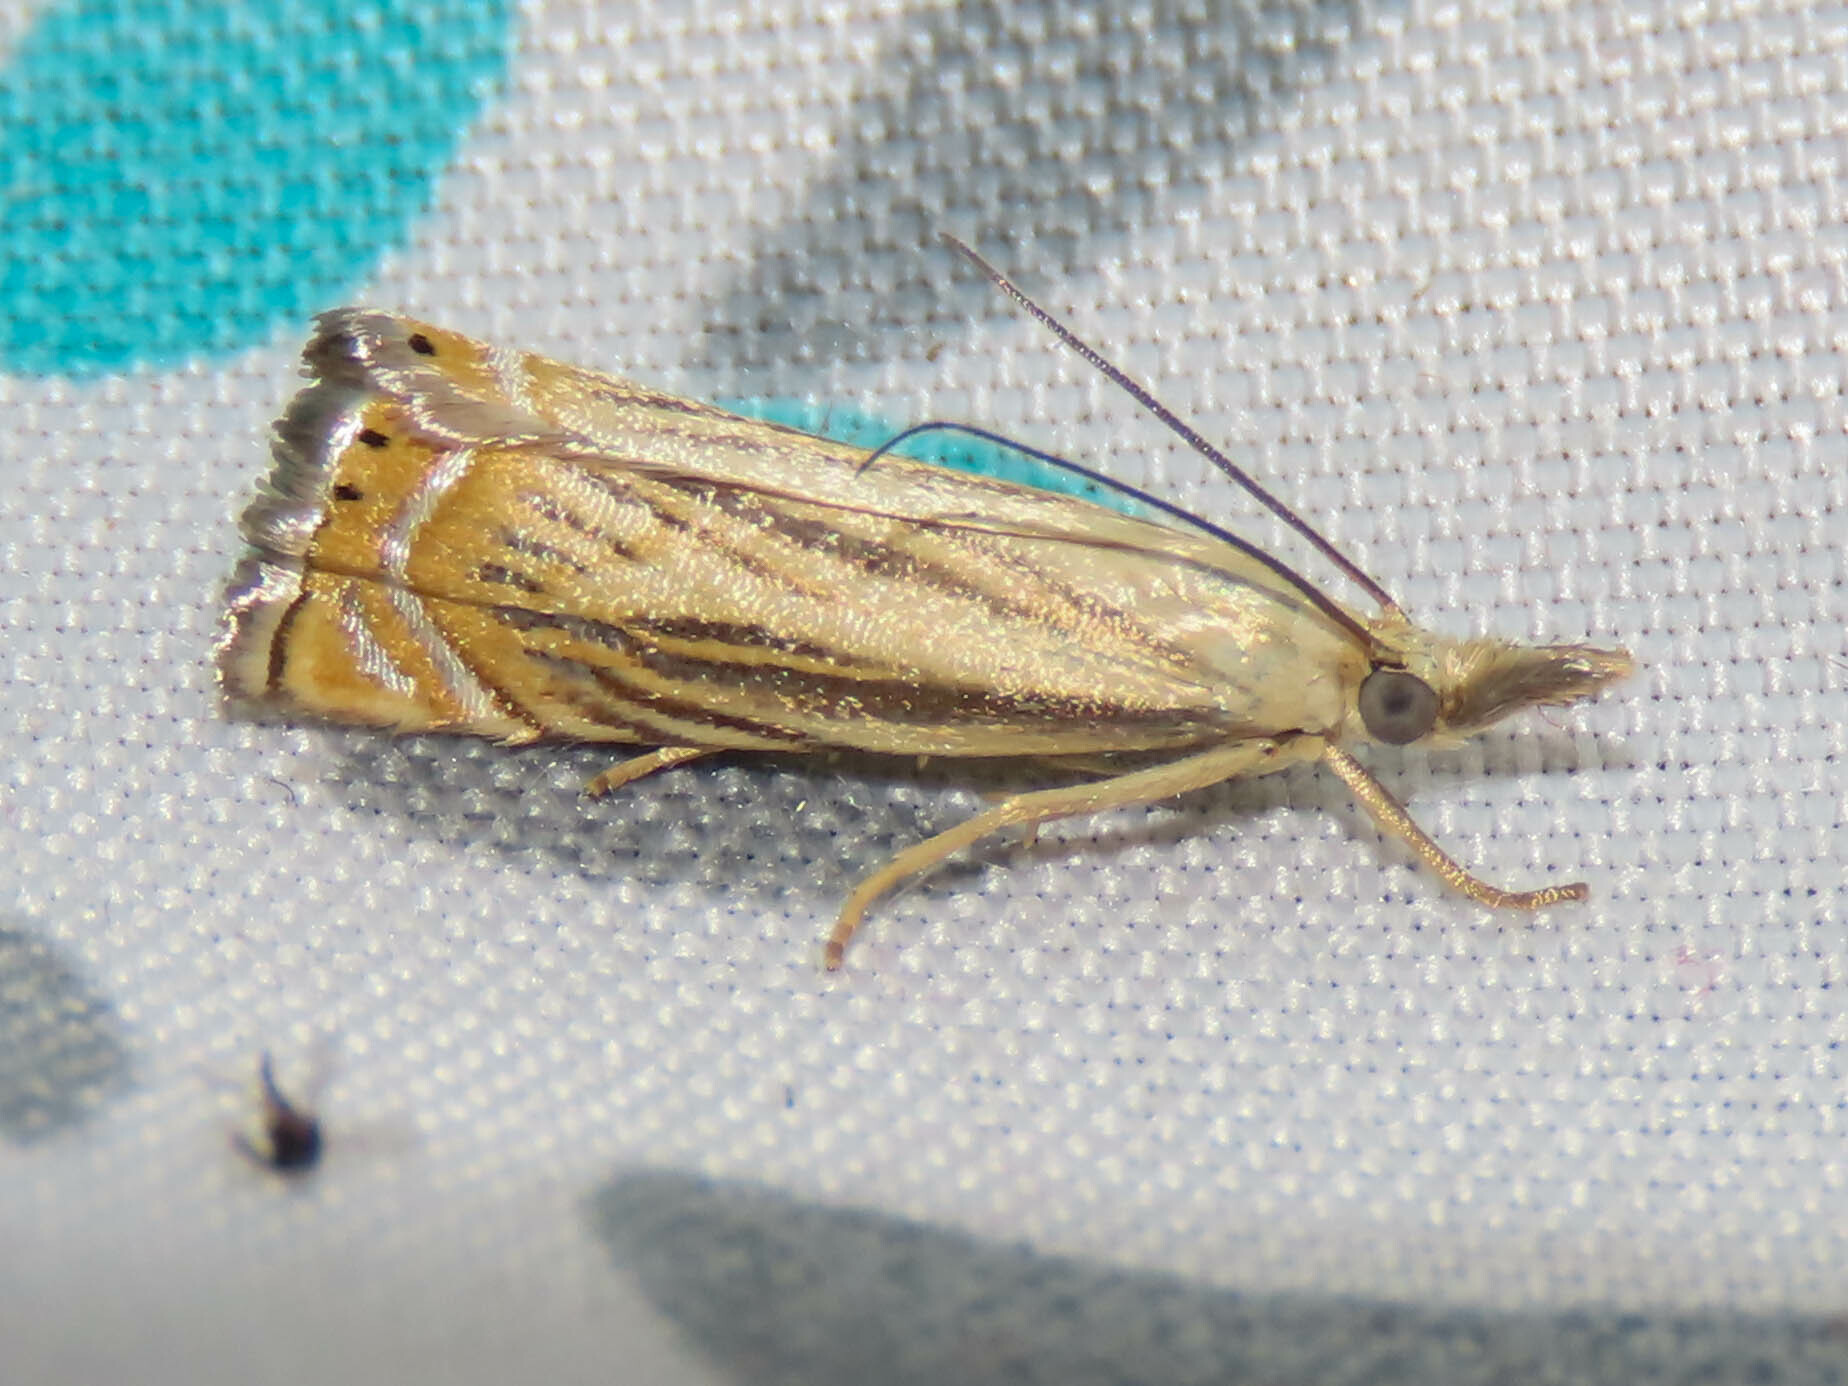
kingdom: Animalia
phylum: Arthropoda
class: Insecta
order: Lepidoptera
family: Crambidae
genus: Chrysoteuchia
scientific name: Chrysoteuchia topiarius
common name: Topiary grass-veneer
